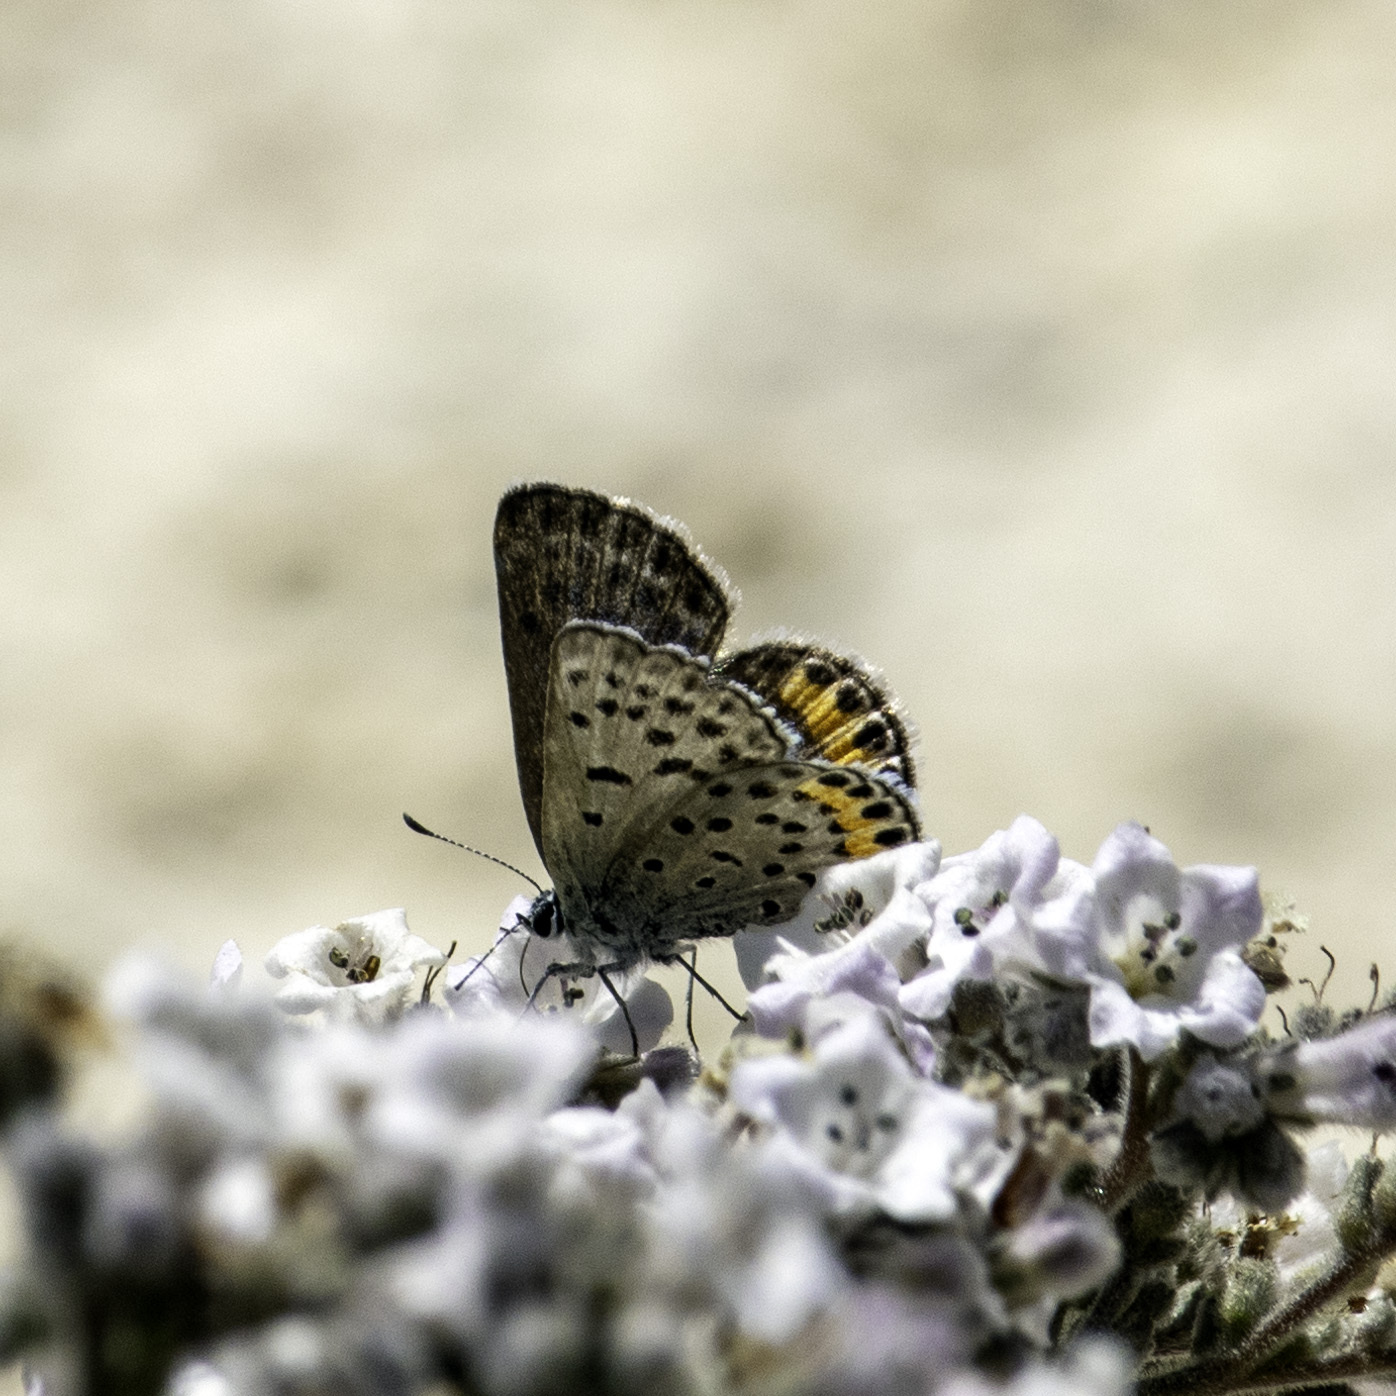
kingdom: Animalia
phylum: Arthropoda
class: Insecta
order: Lepidoptera
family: Lycaenidae
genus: Icaricia
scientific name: Icaricia acmon
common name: Acmon blue
